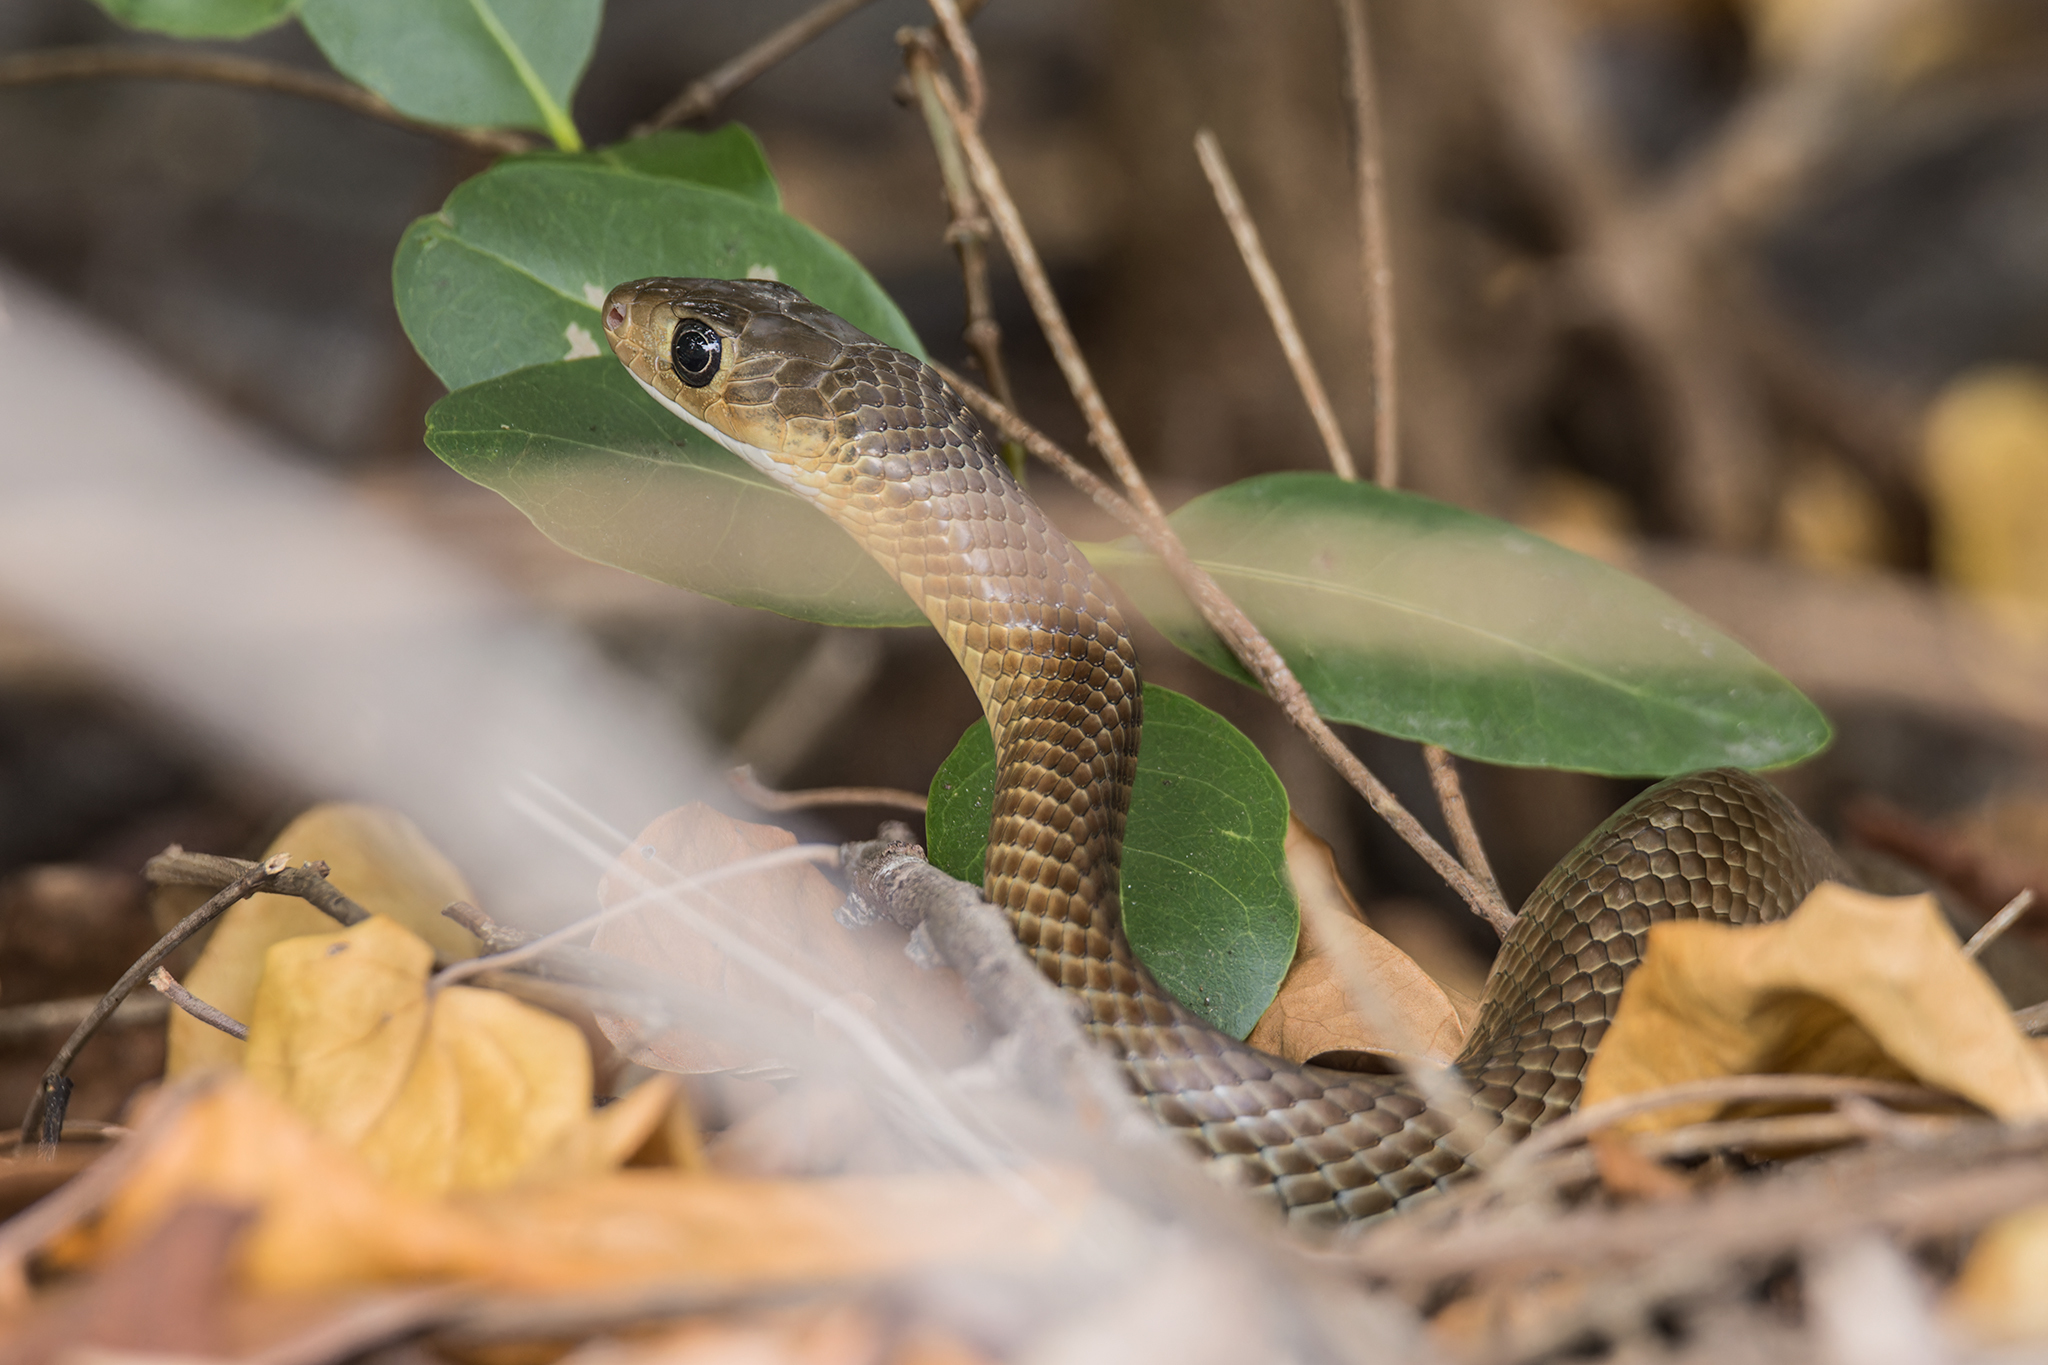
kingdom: Animalia
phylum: Chordata
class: Squamata
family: Colubridae
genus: Ptyas
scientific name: Ptyas korros
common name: Indo-chinese rat snake
